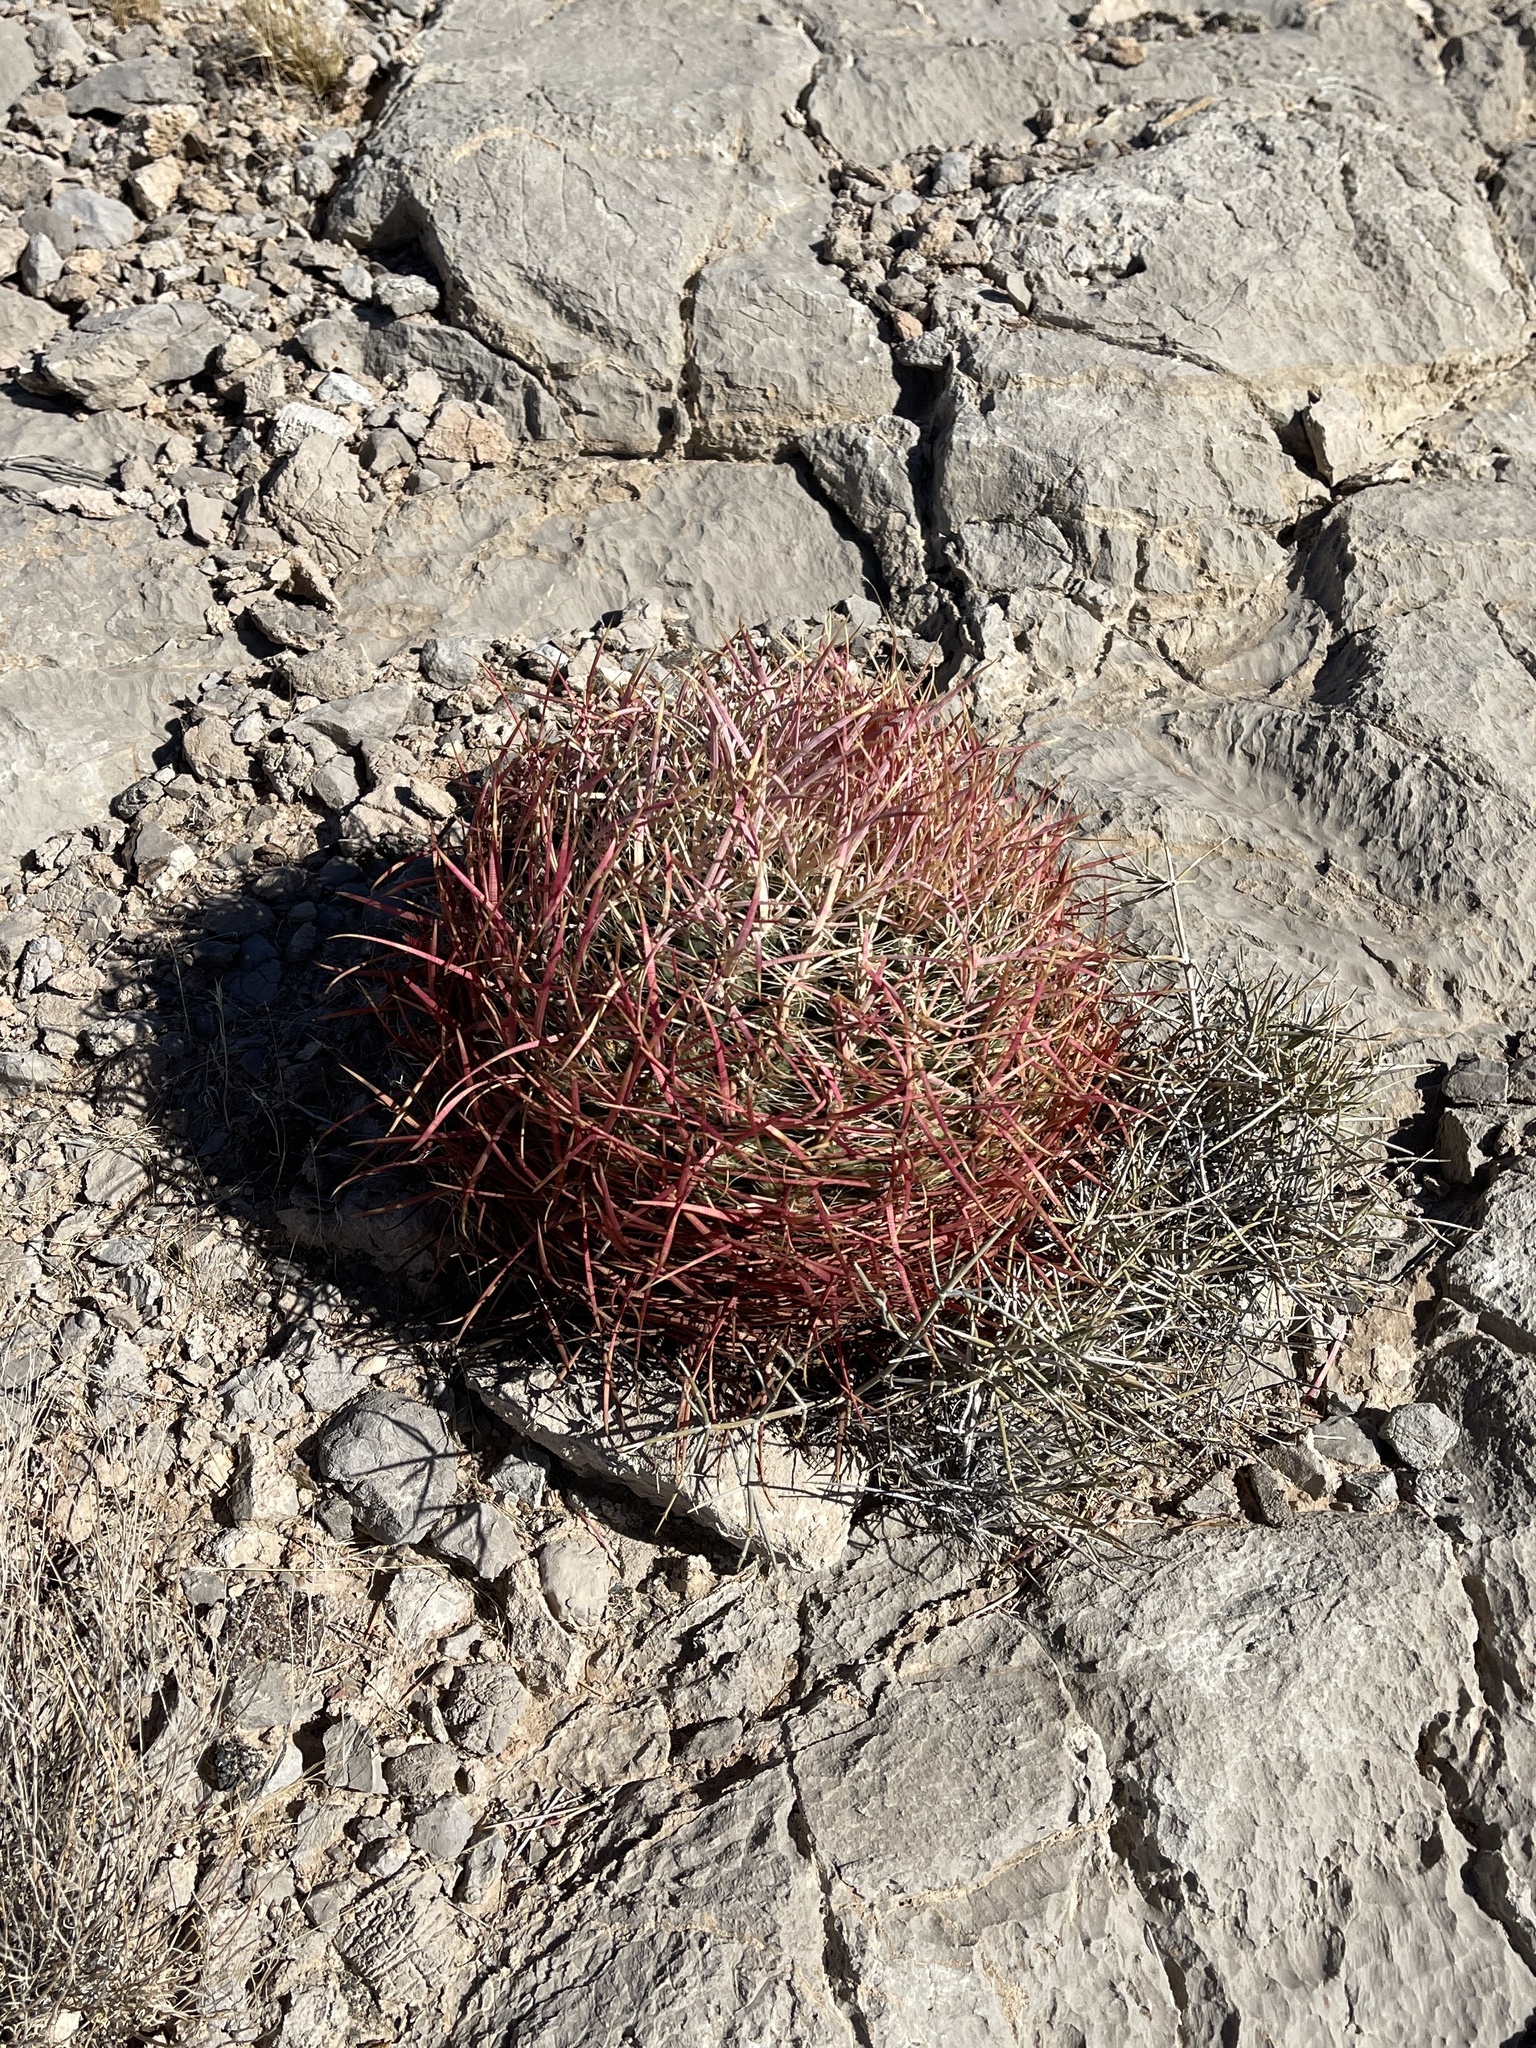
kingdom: Plantae
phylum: Tracheophyta
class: Magnoliopsida
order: Caryophyllales
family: Cactaceae
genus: Ferocactus
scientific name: Ferocactus cylindraceus
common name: California barrel cactus
